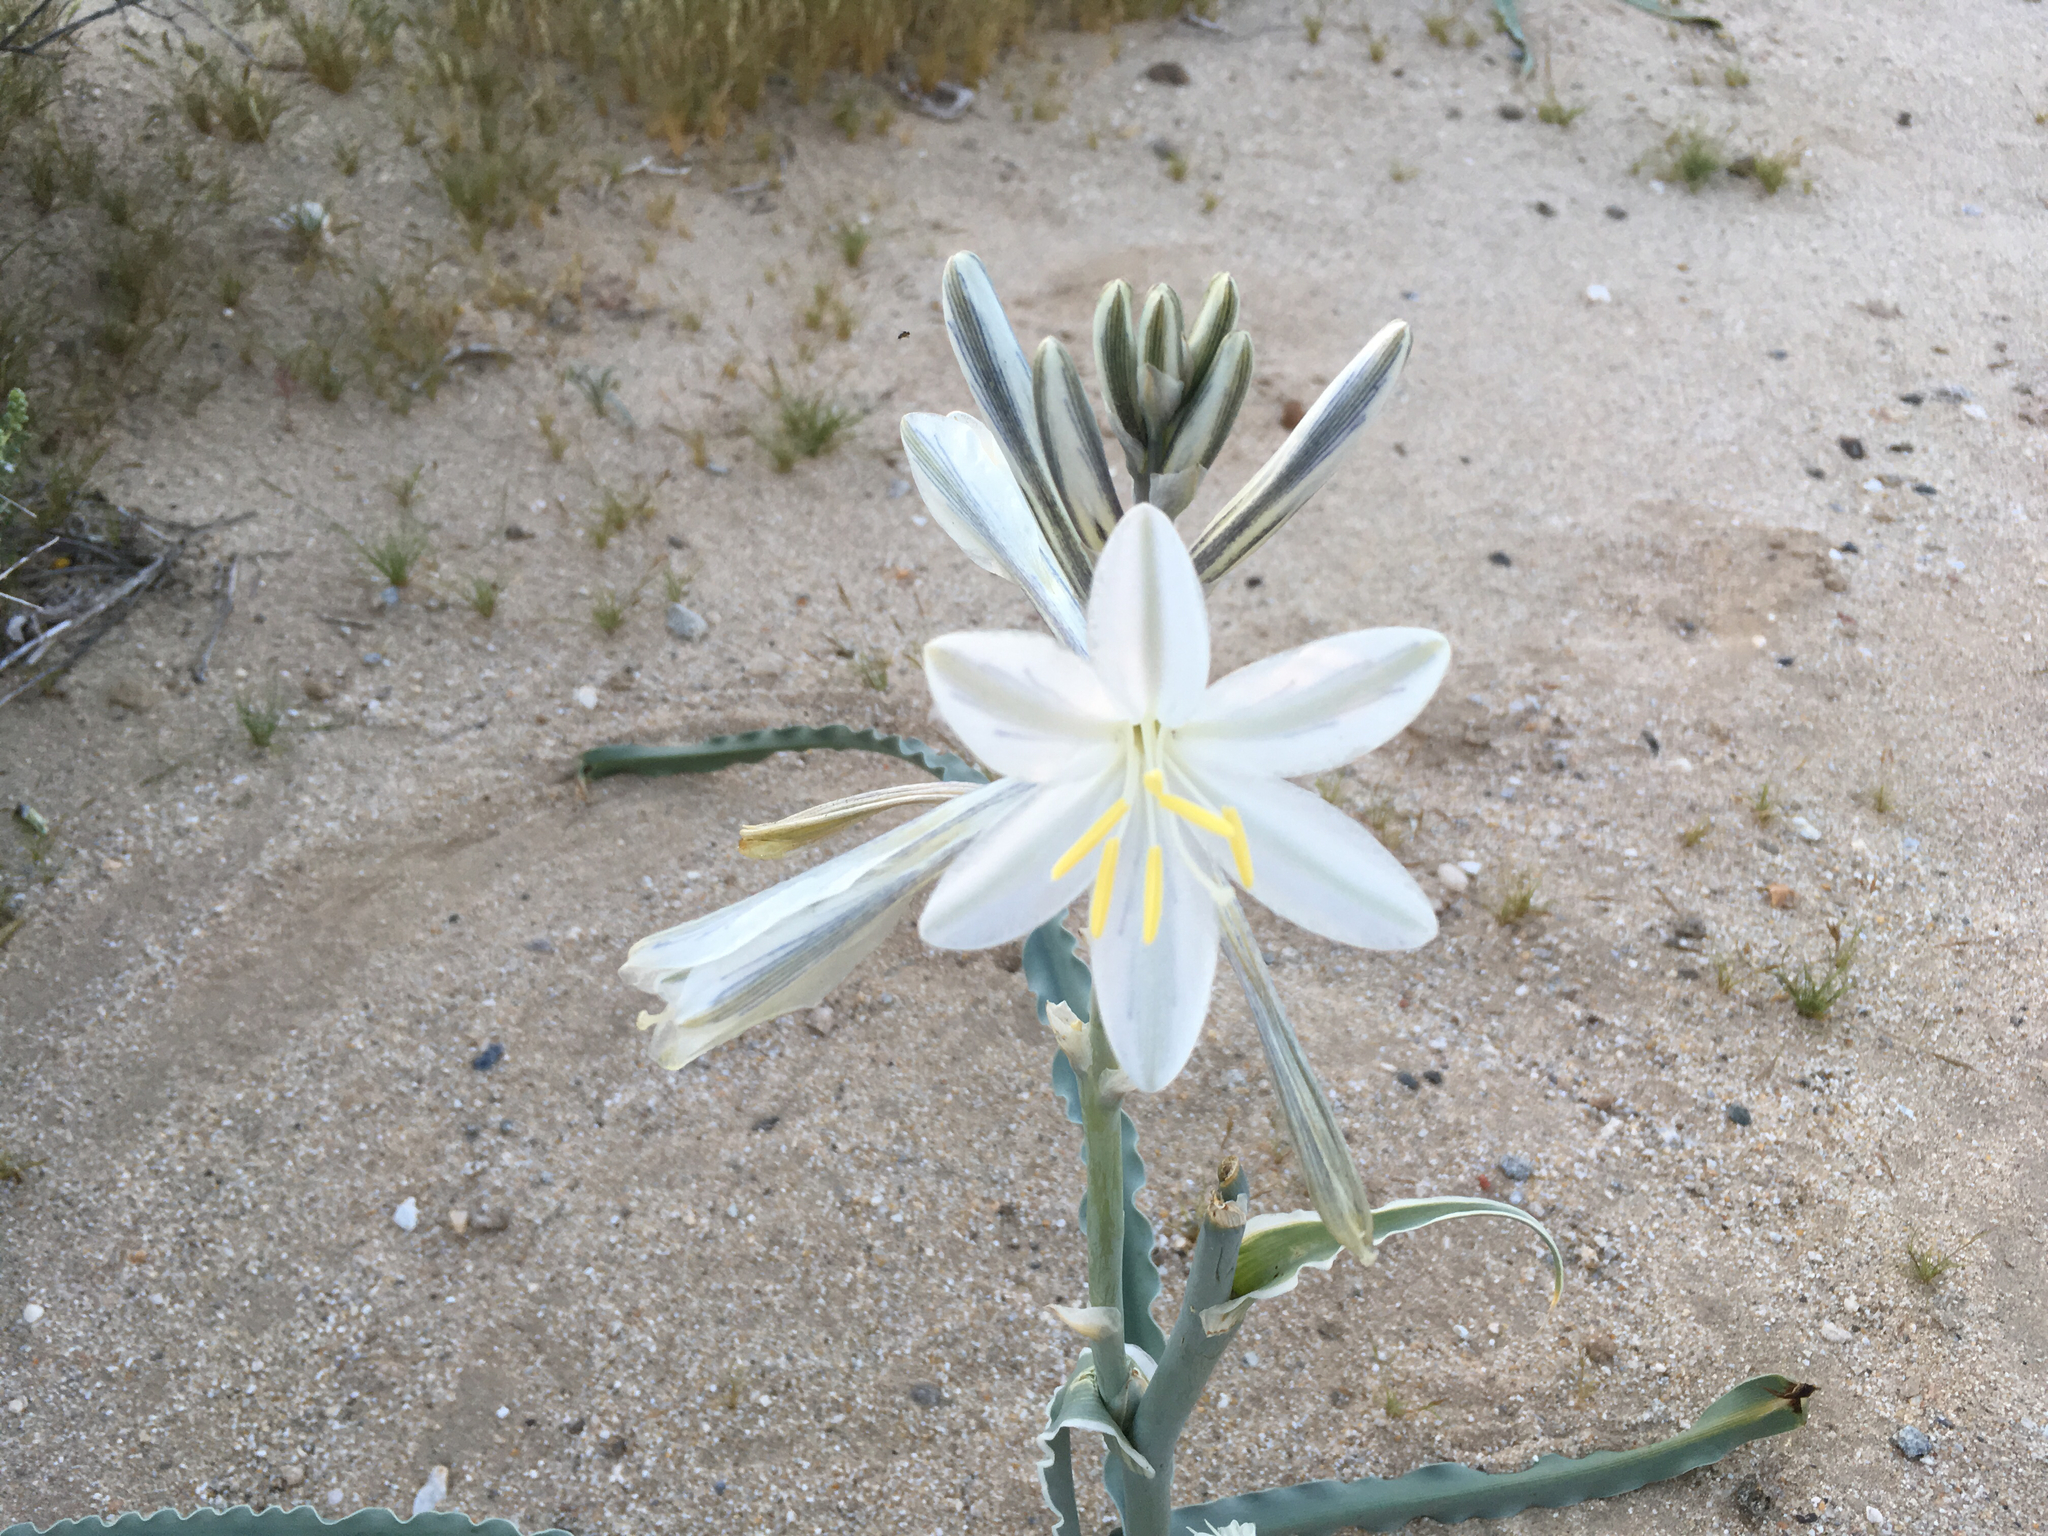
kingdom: Plantae
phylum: Tracheophyta
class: Liliopsida
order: Asparagales
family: Asparagaceae
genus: Hesperocallis
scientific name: Hesperocallis undulata
